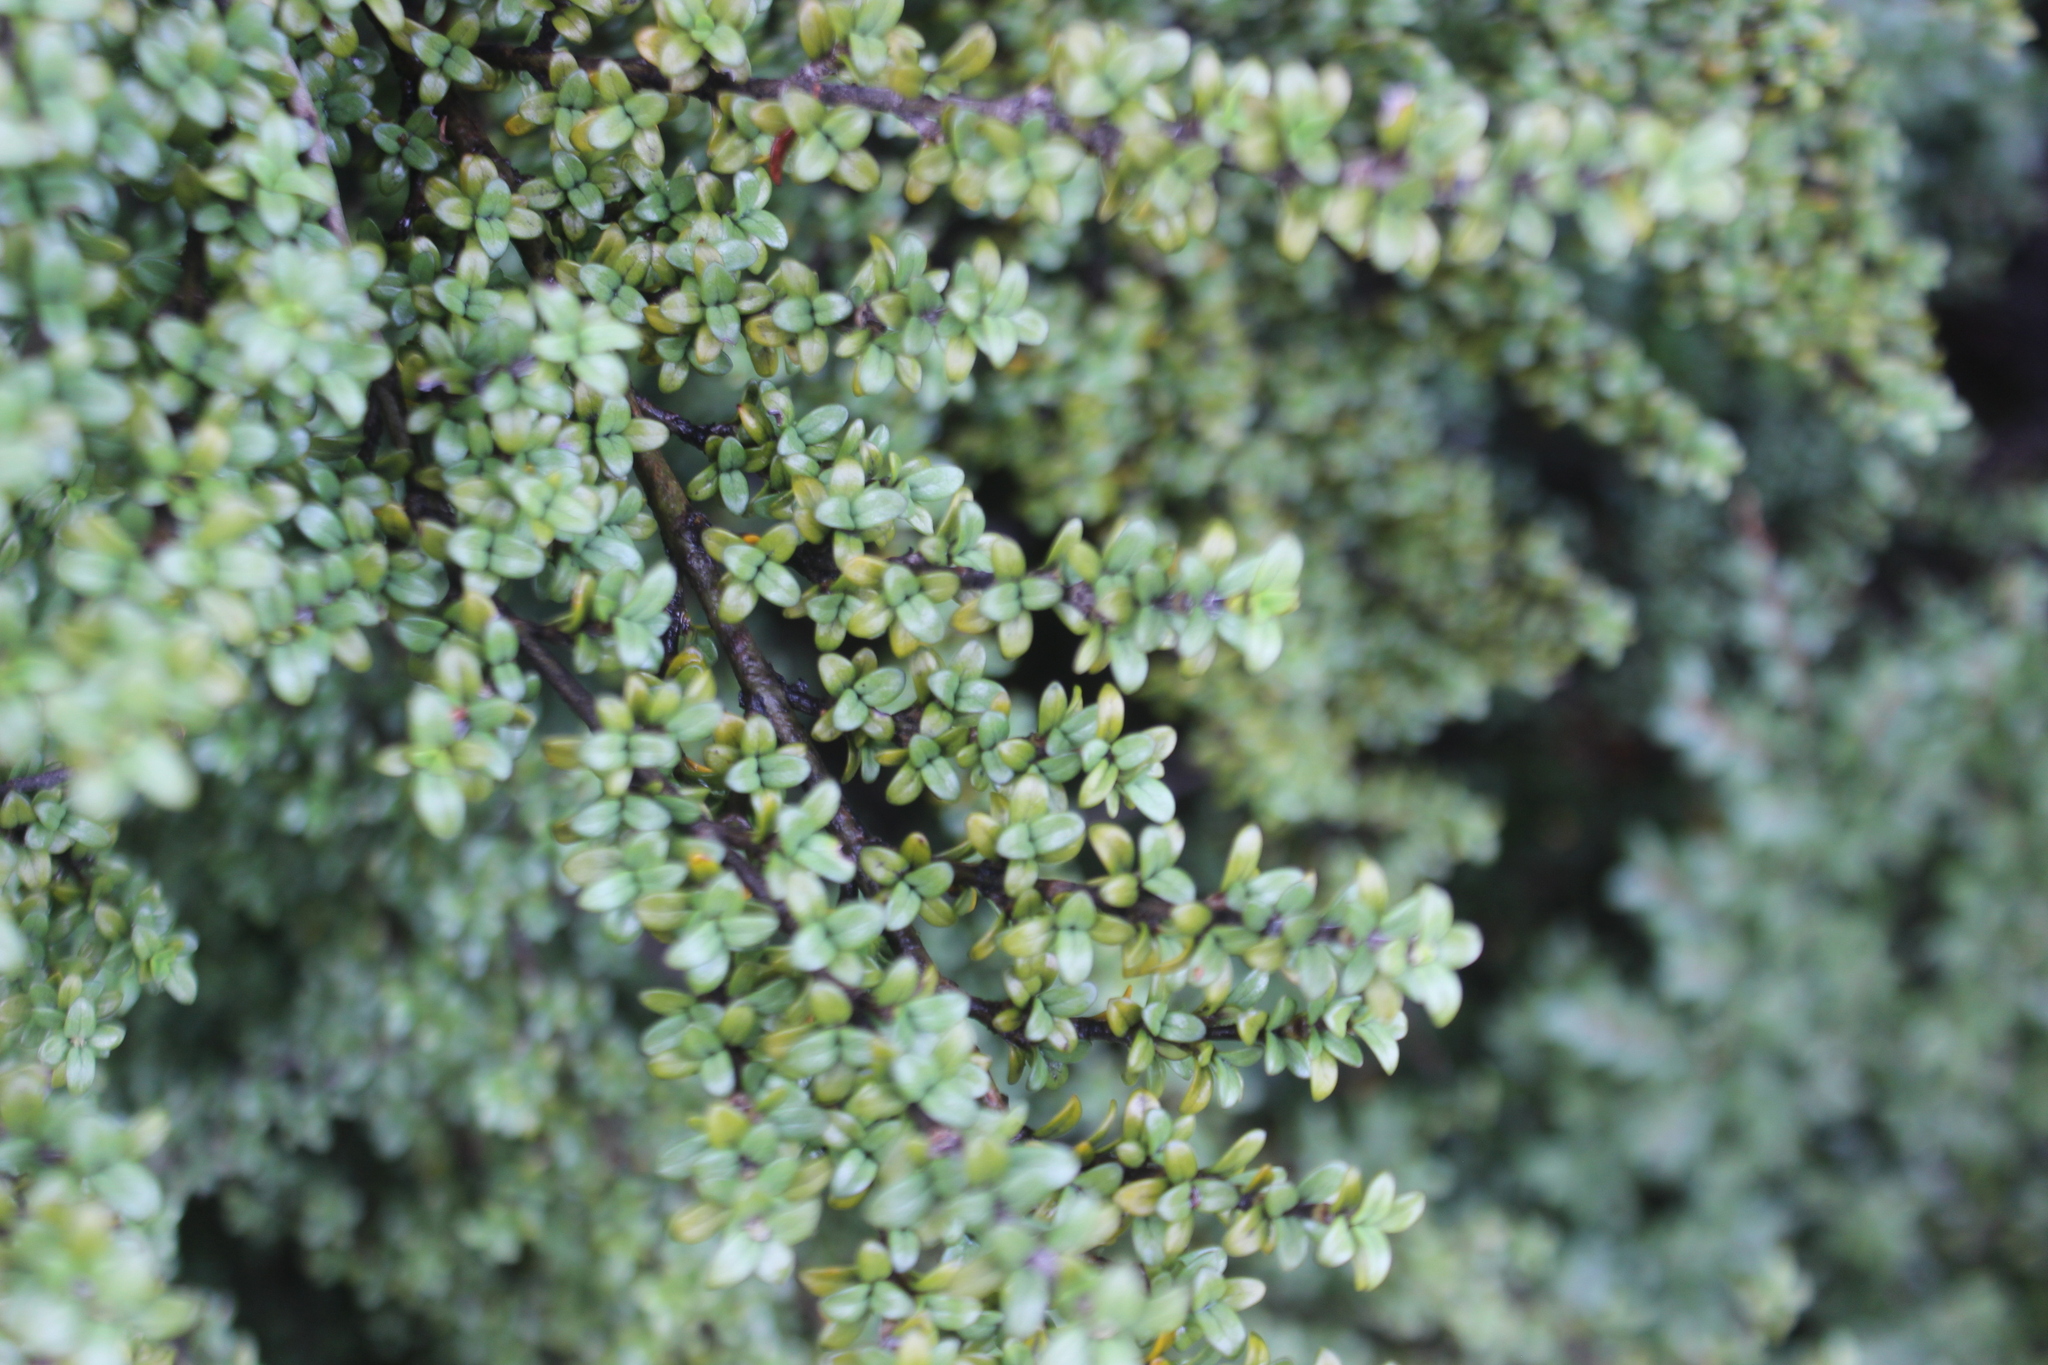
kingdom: Plantae
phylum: Tracheophyta
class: Magnoliopsida
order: Gentianales
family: Rubiaceae
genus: Coprosma
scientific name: Coprosma pseudocuneata
